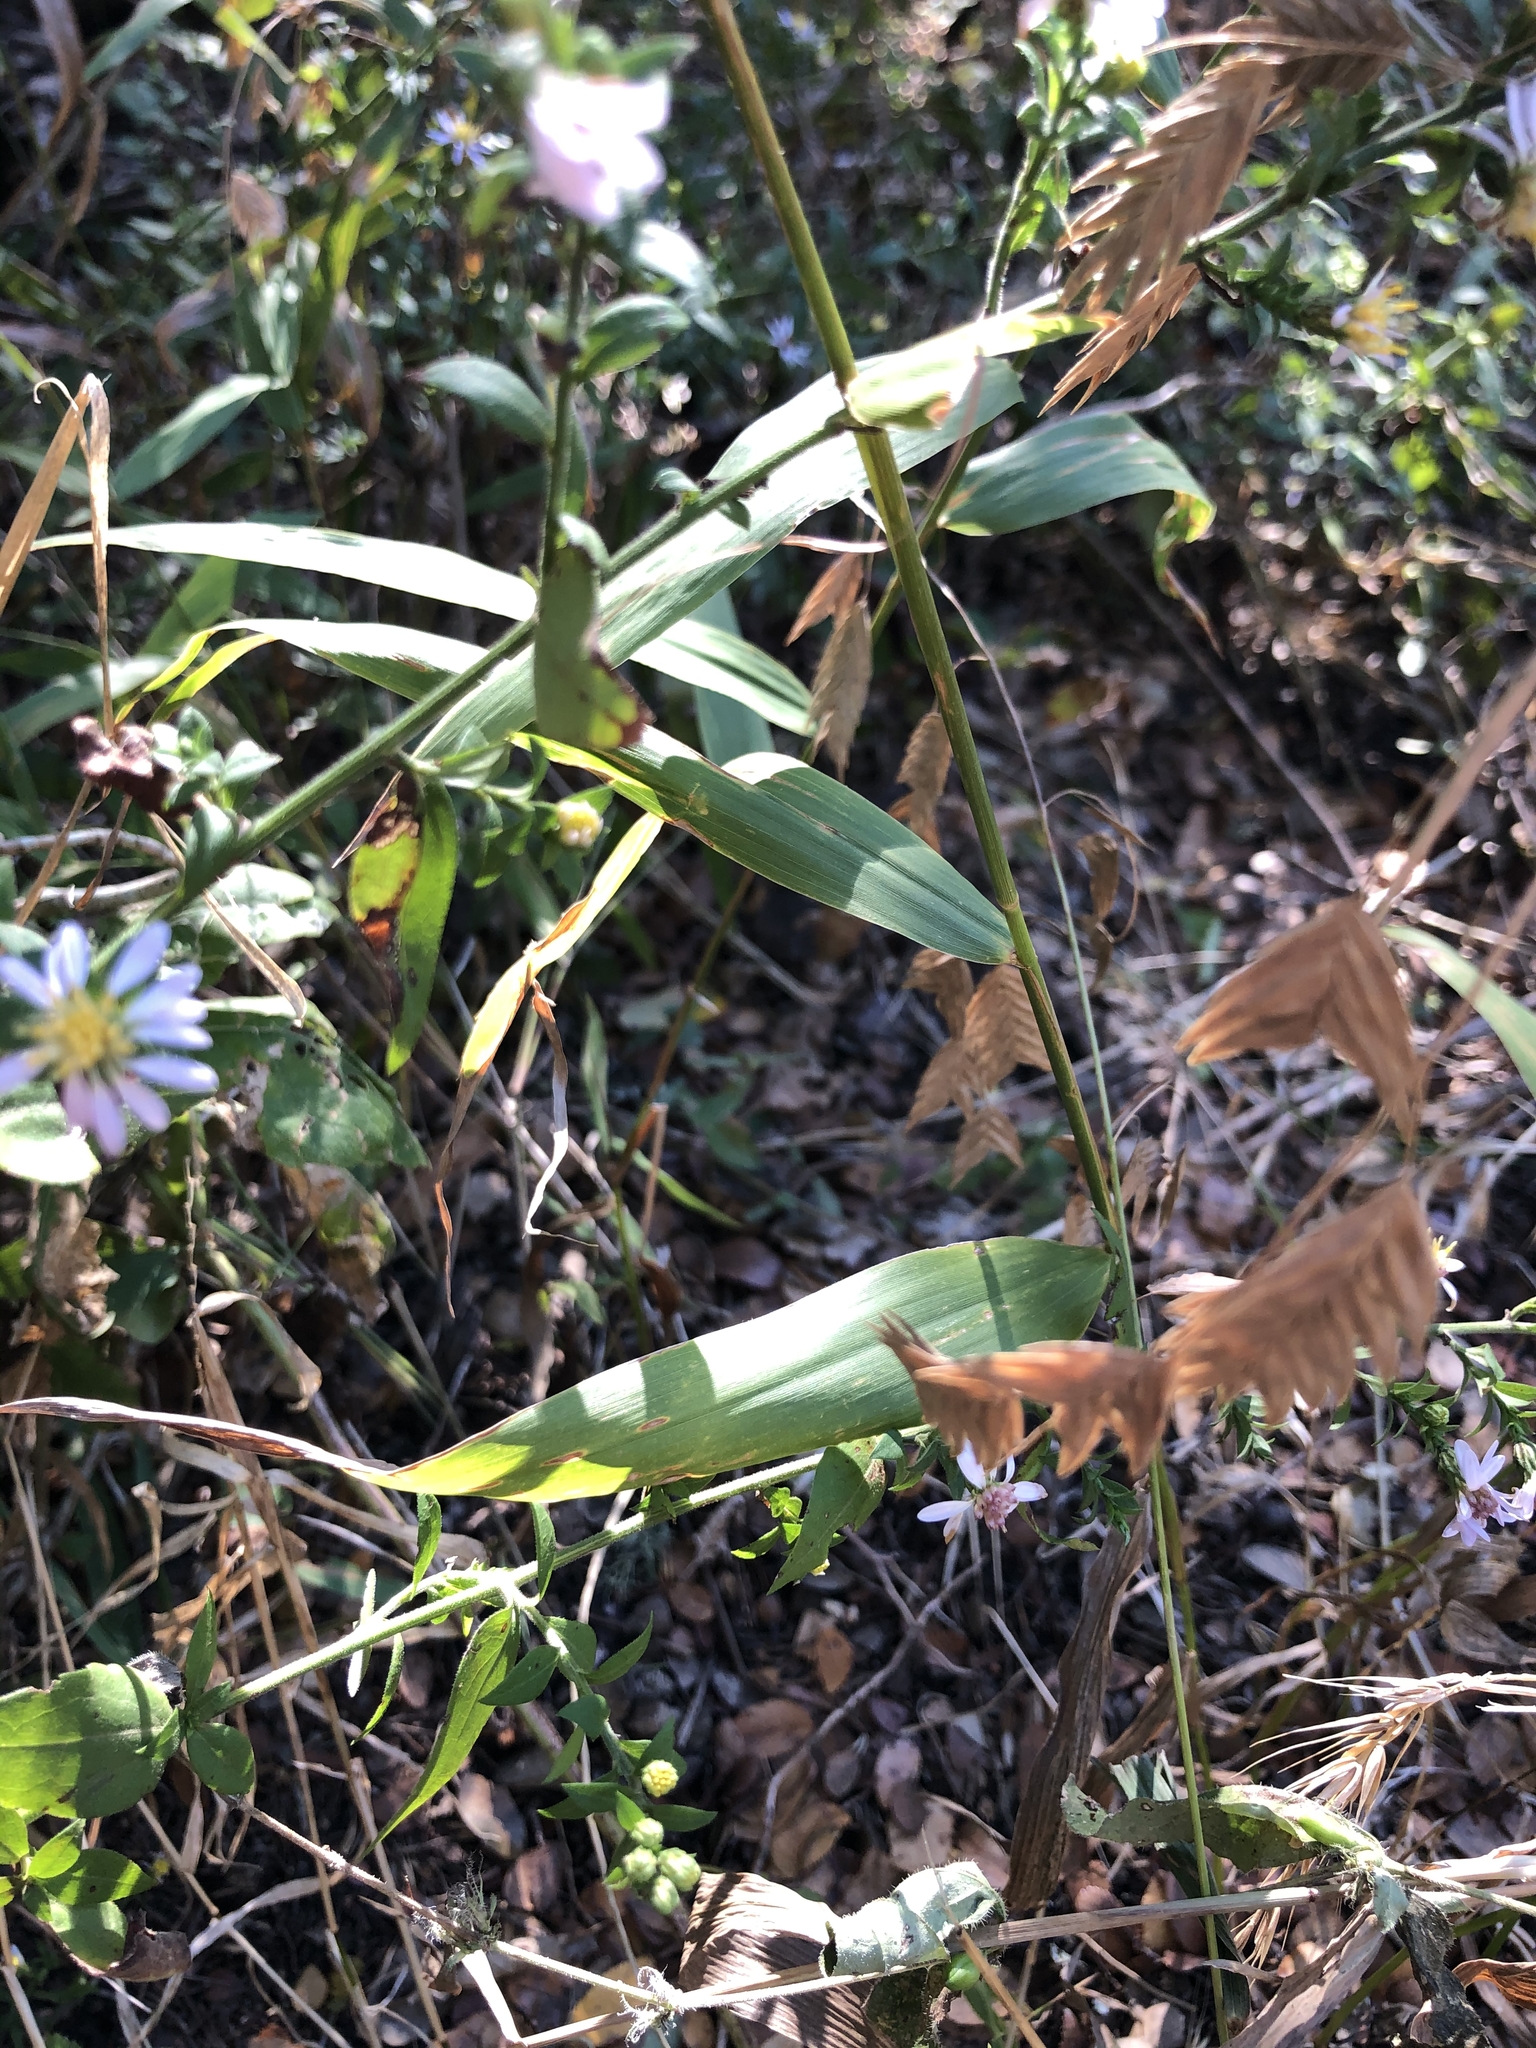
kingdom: Plantae
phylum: Tracheophyta
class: Liliopsida
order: Poales
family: Poaceae
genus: Chasmanthium
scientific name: Chasmanthium latifolium
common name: Broad-leaved chasmanthium
